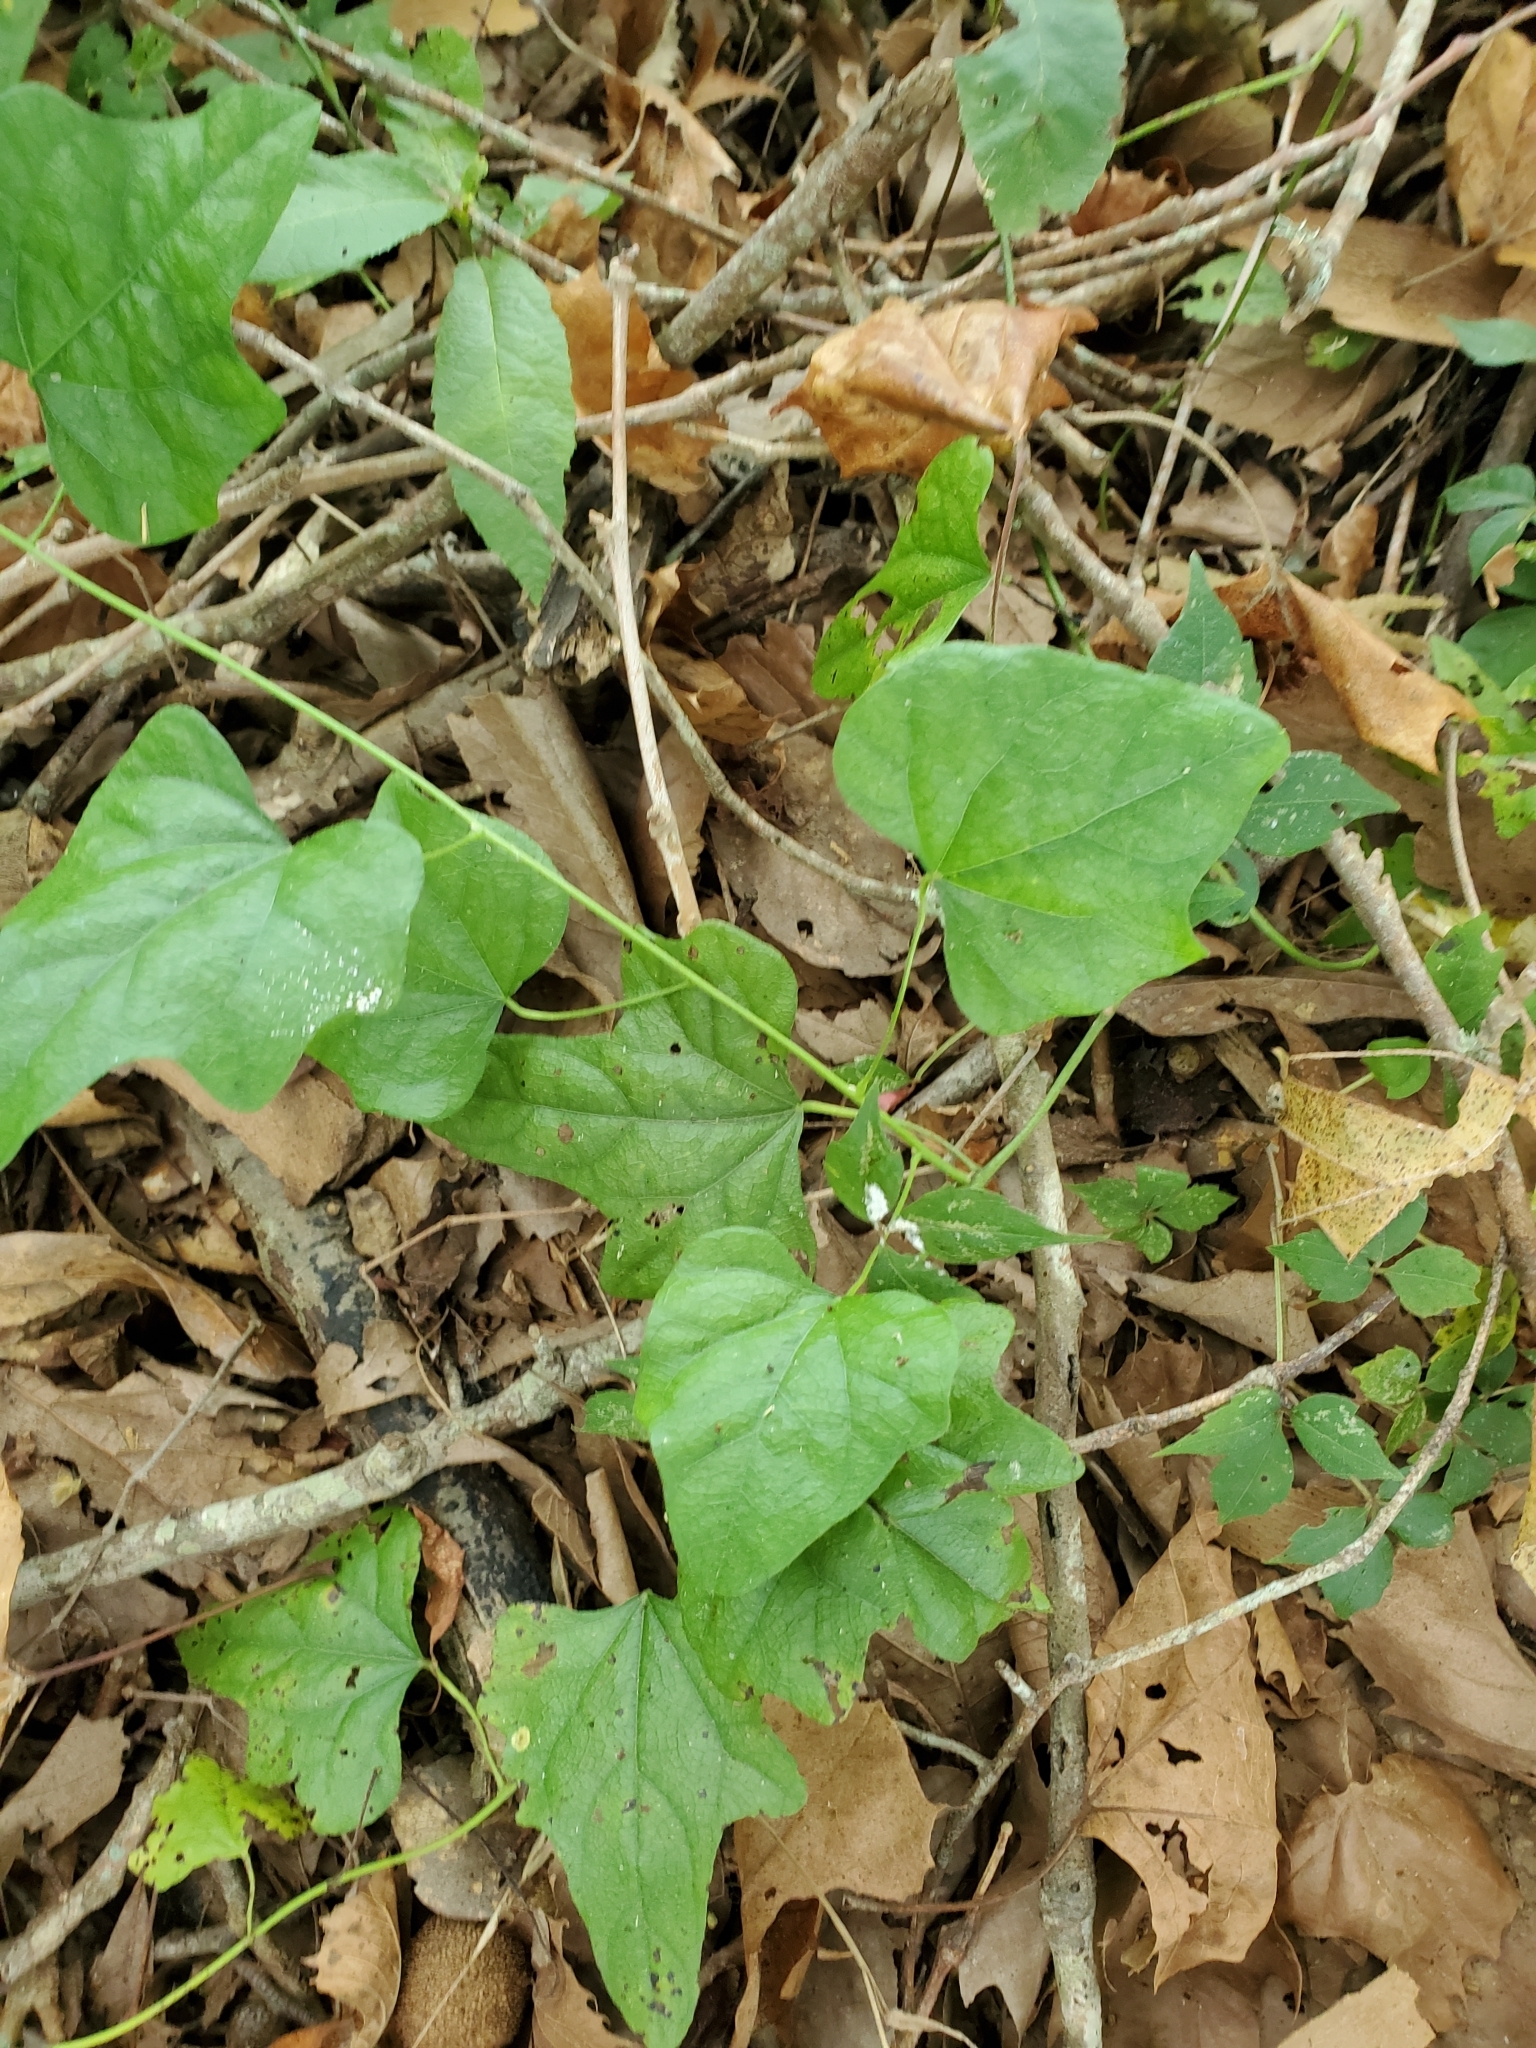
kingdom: Plantae
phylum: Tracheophyta
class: Magnoliopsida
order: Ranunculales
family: Menispermaceae
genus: Cocculus
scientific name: Cocculus carolinus
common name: Carolina moonseed
